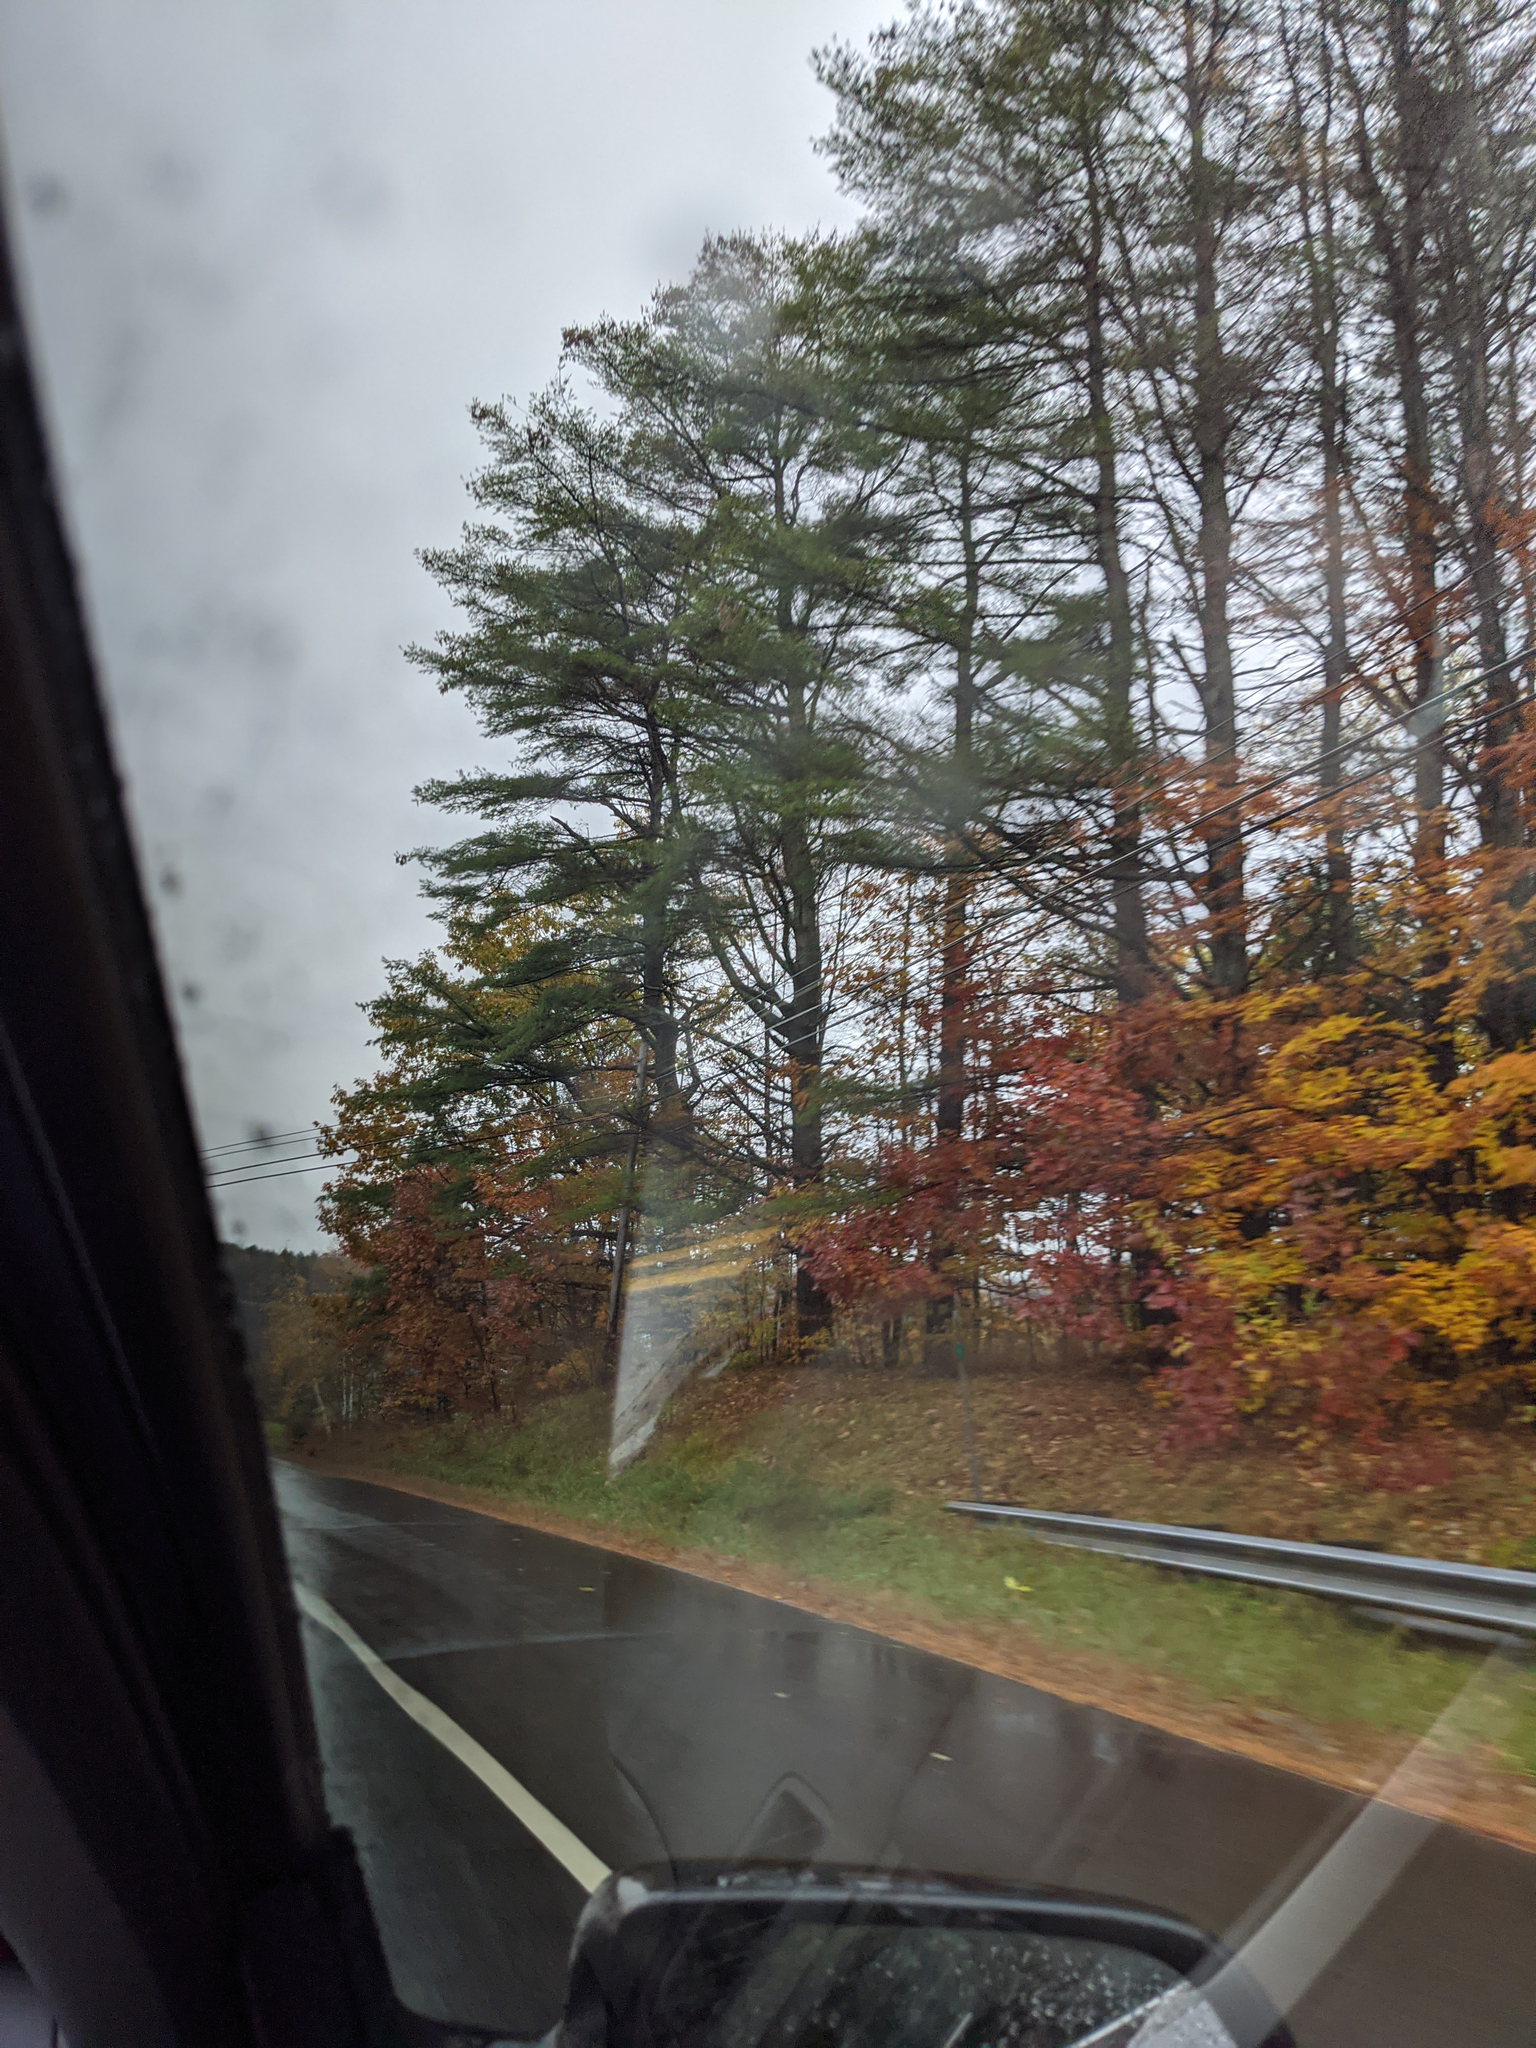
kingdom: Plantae
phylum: Tracheophyta
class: Pinopsida
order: Pinales
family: Pinaceae
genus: Pinus
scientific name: Pinus strobus
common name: Weymouth pine
